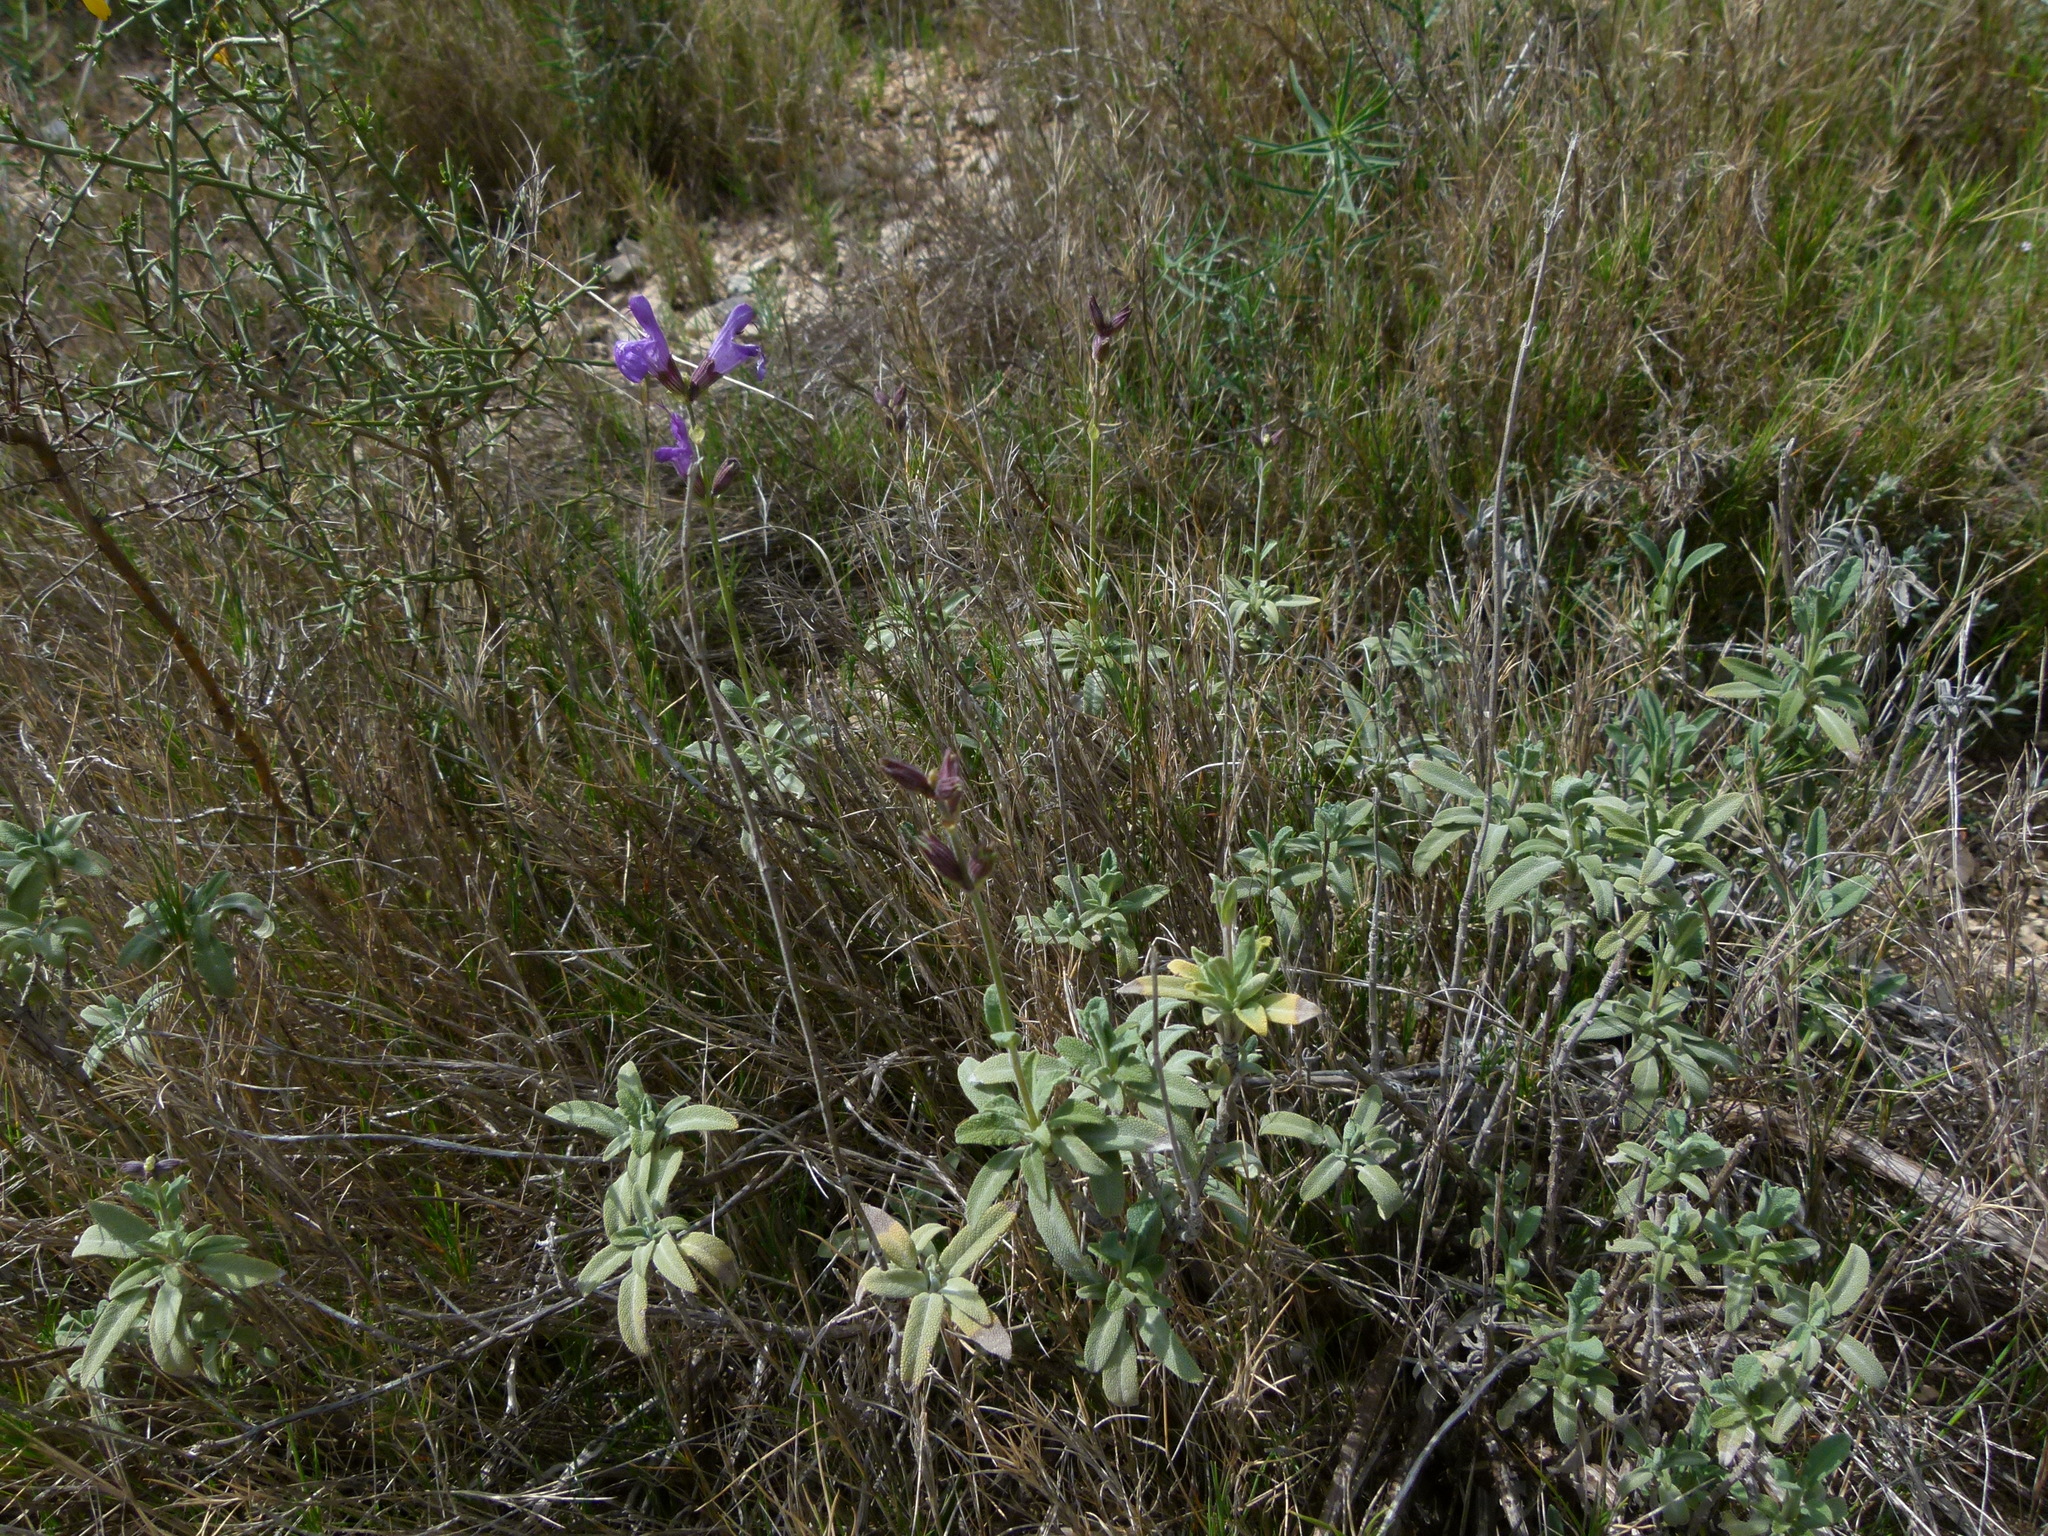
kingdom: Plantae
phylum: Tracheophyta
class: Magnoliopsida
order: Lamiales
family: Lamiaceae
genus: Salvia
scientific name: Salvia officinalis
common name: Sage
